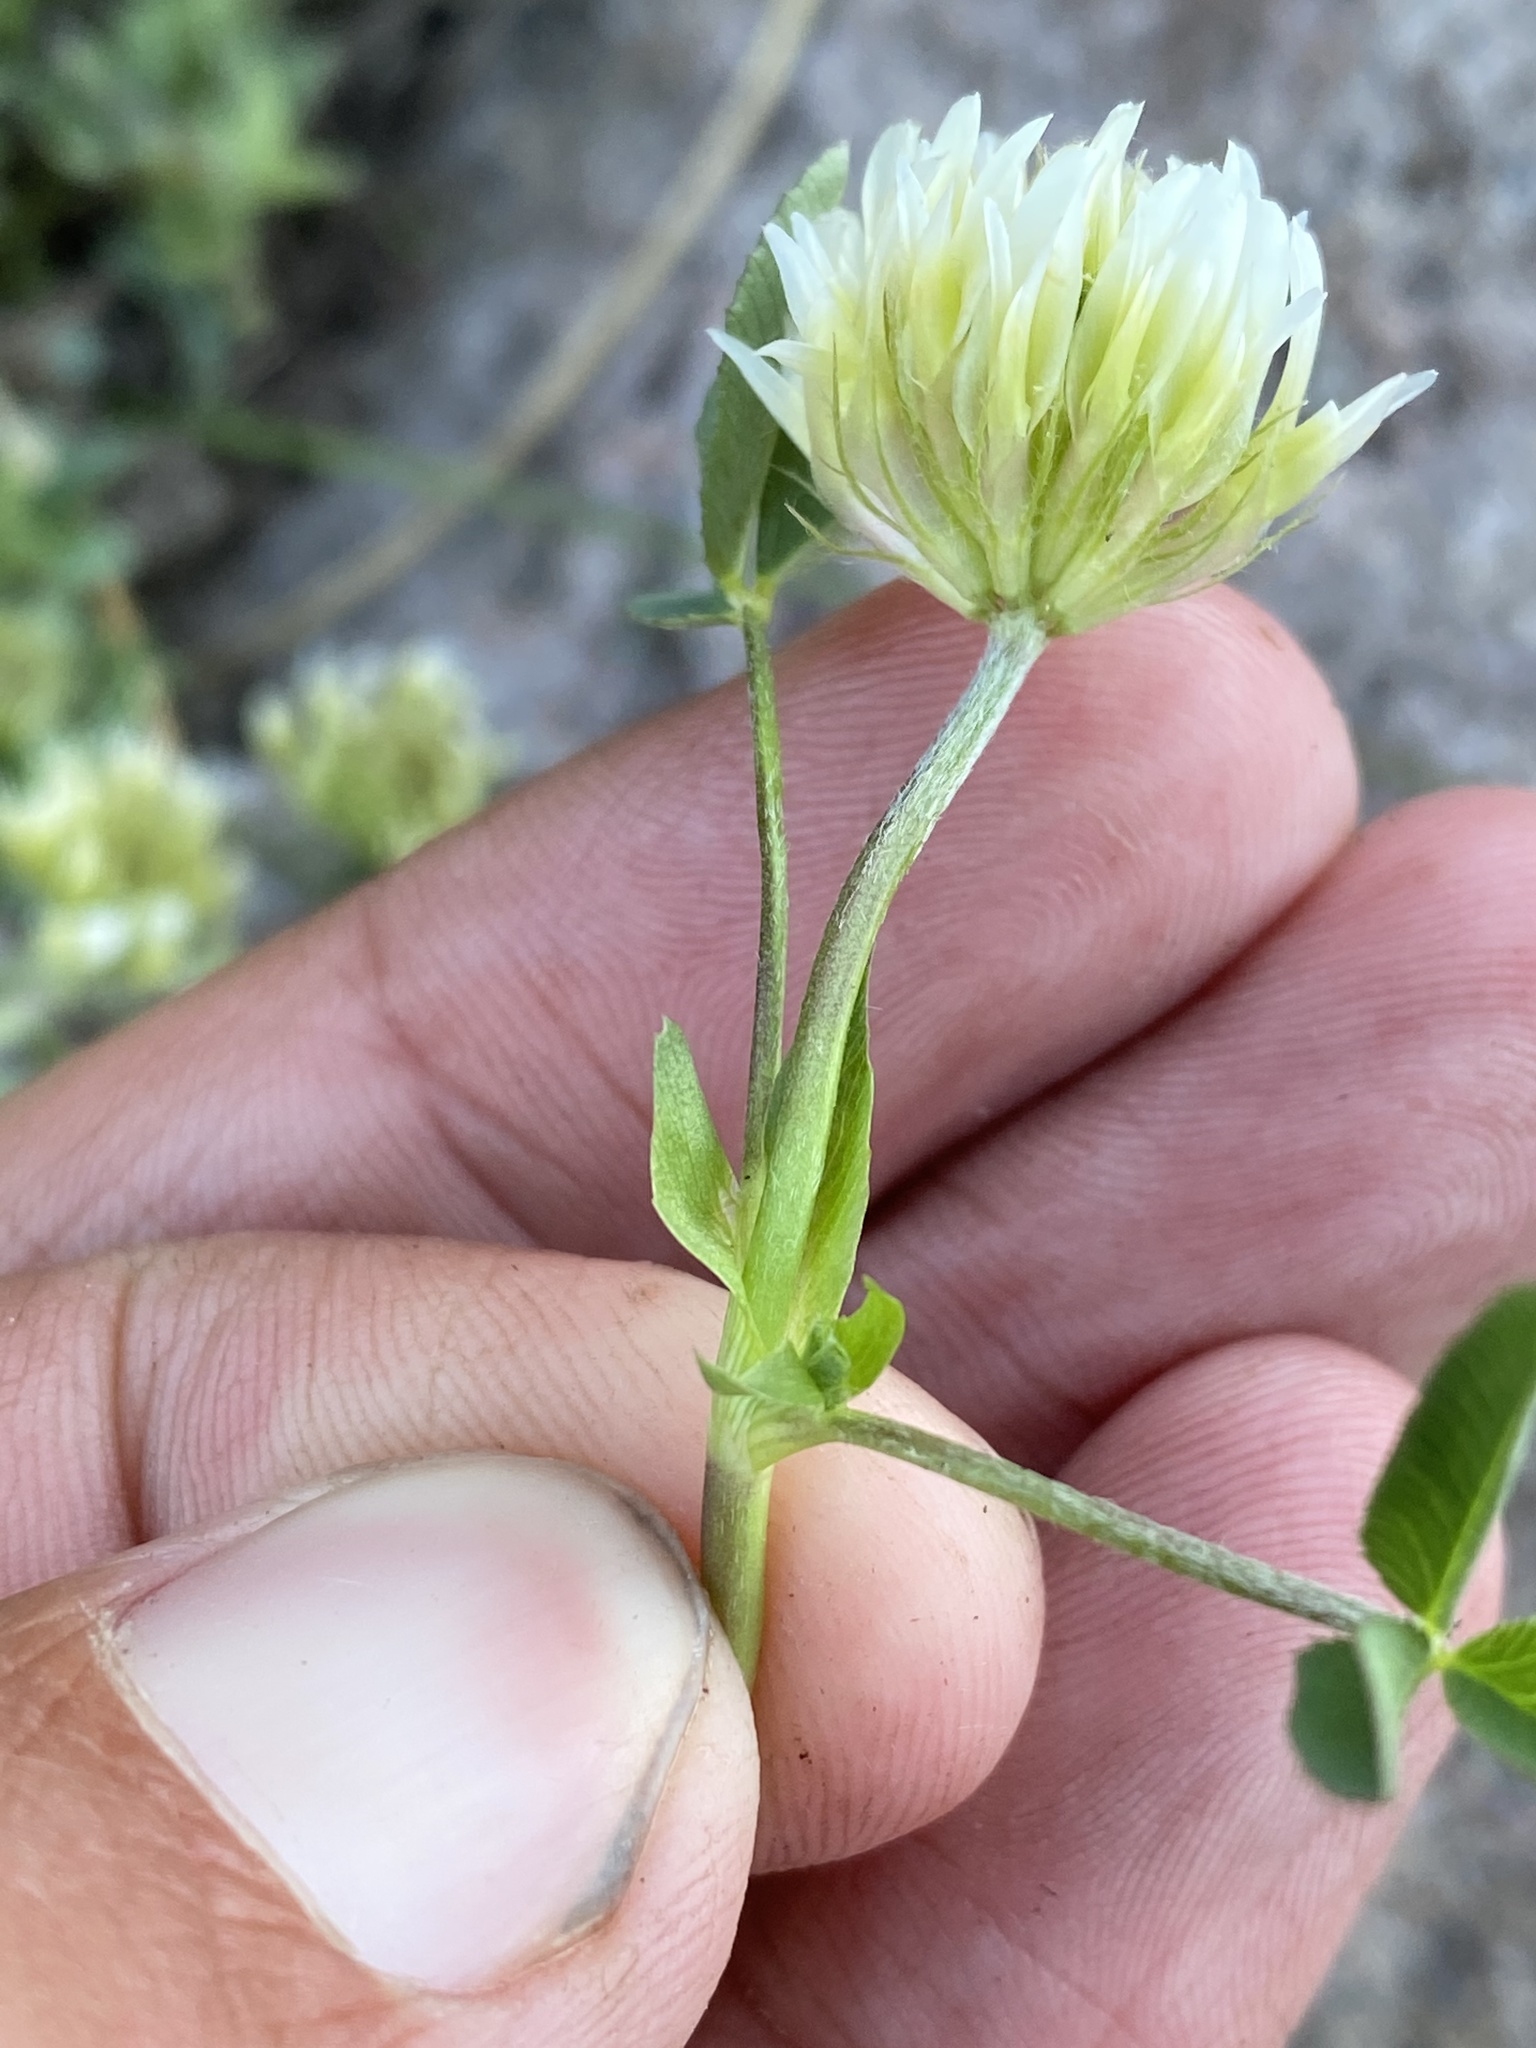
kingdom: Plantae
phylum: Tracheophyta
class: Magnoliopsida
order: Fabales
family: Fabaceae
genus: Trifolium
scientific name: Trifolium longipes
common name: Long-stalk clover
